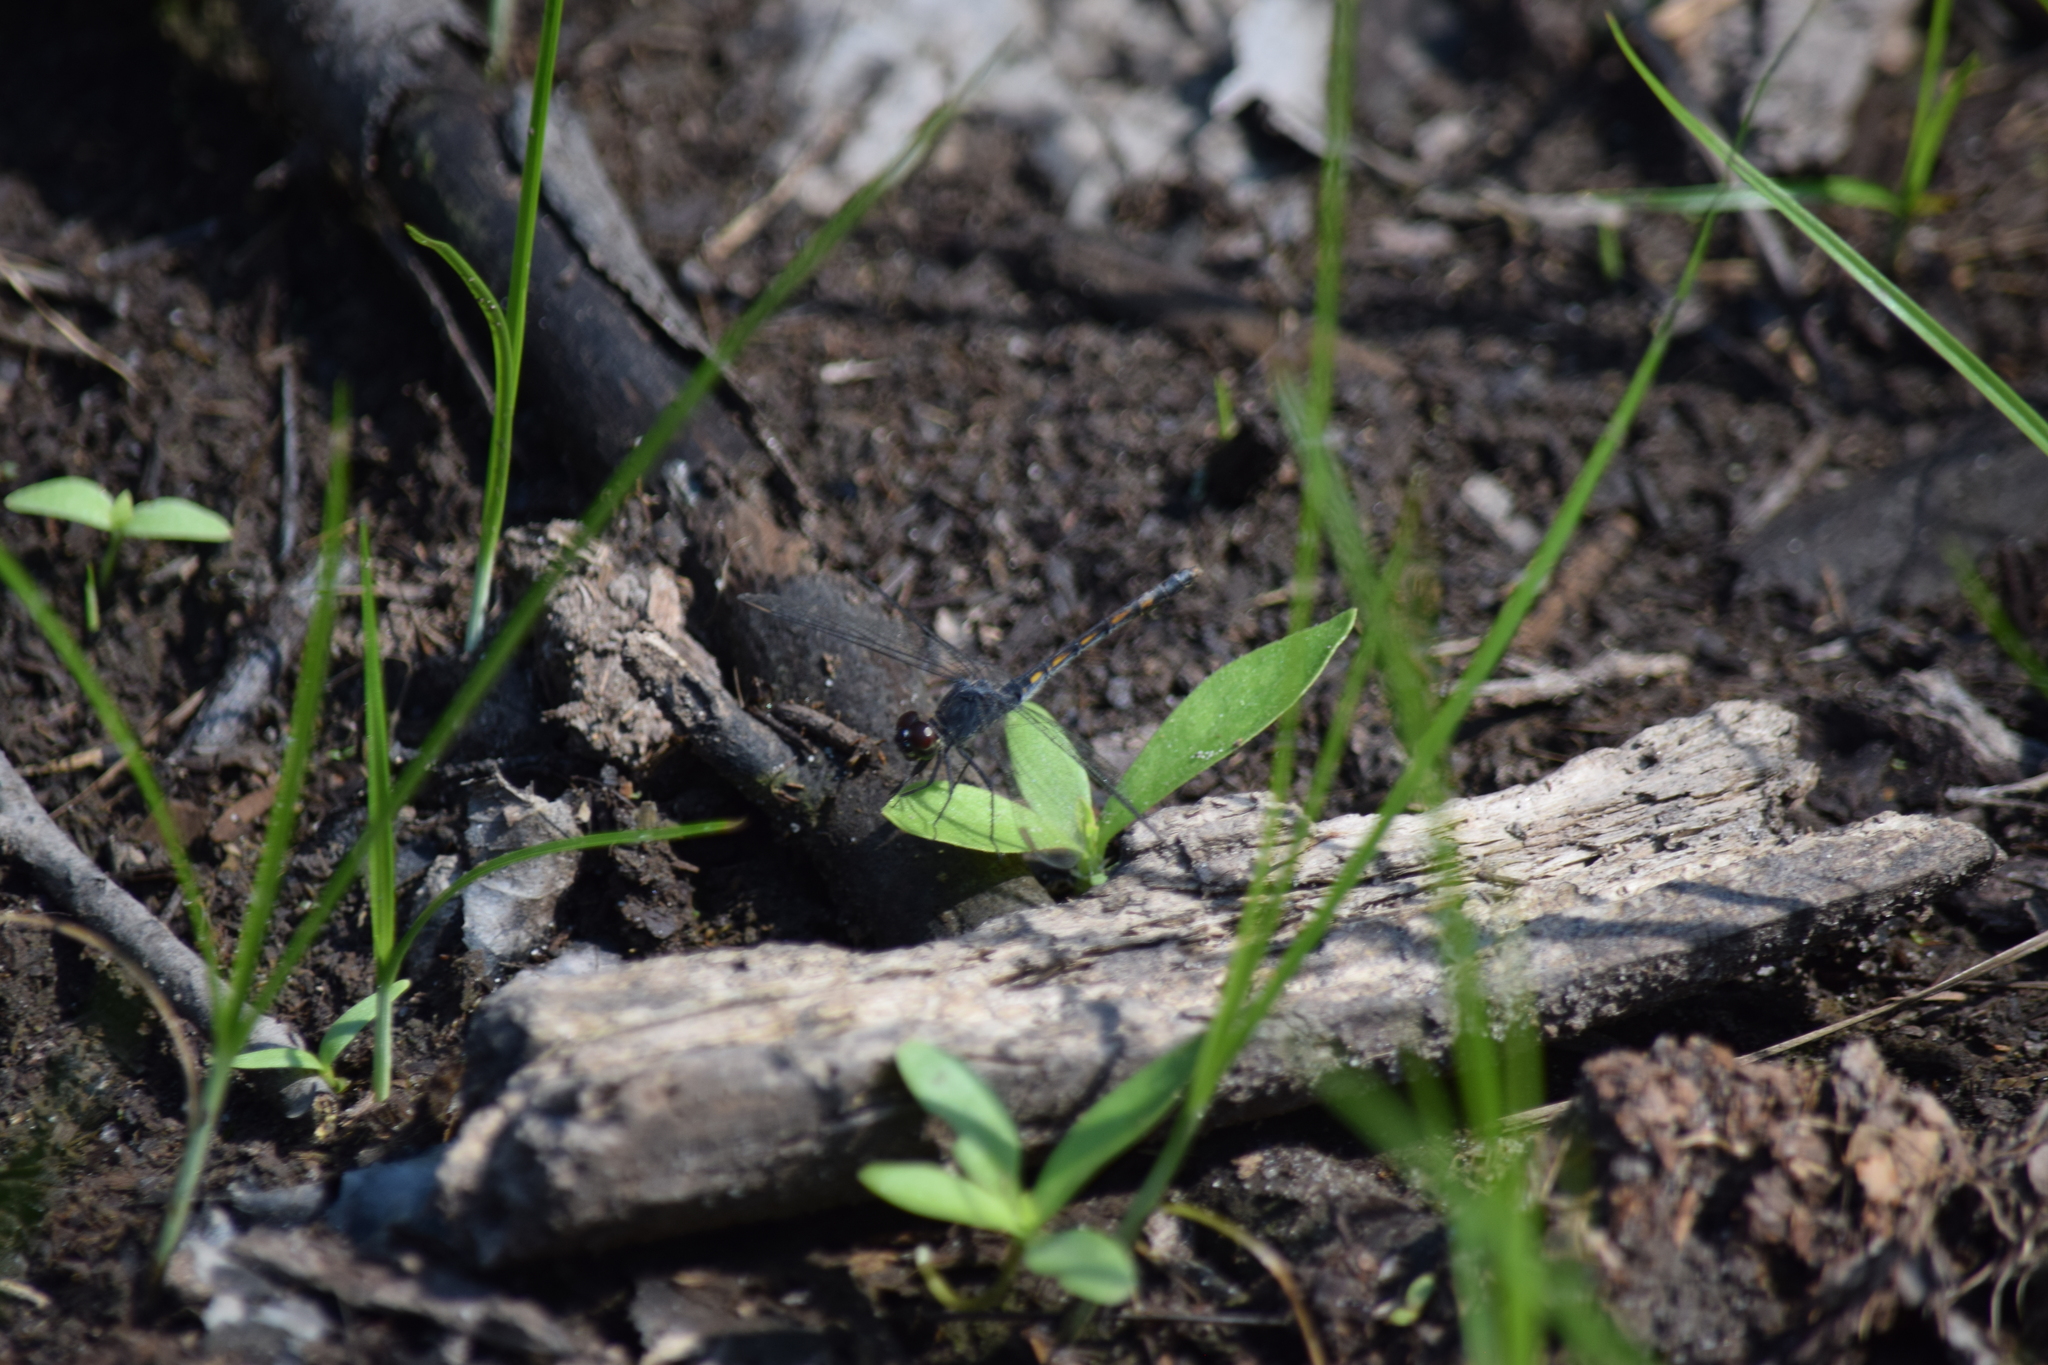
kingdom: Animalia
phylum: Arthropoda
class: Insecta
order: Odonata
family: Libellulidae
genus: Erythrodiplax
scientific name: Erythrodiplax berenice
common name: Seaside dragonlet
